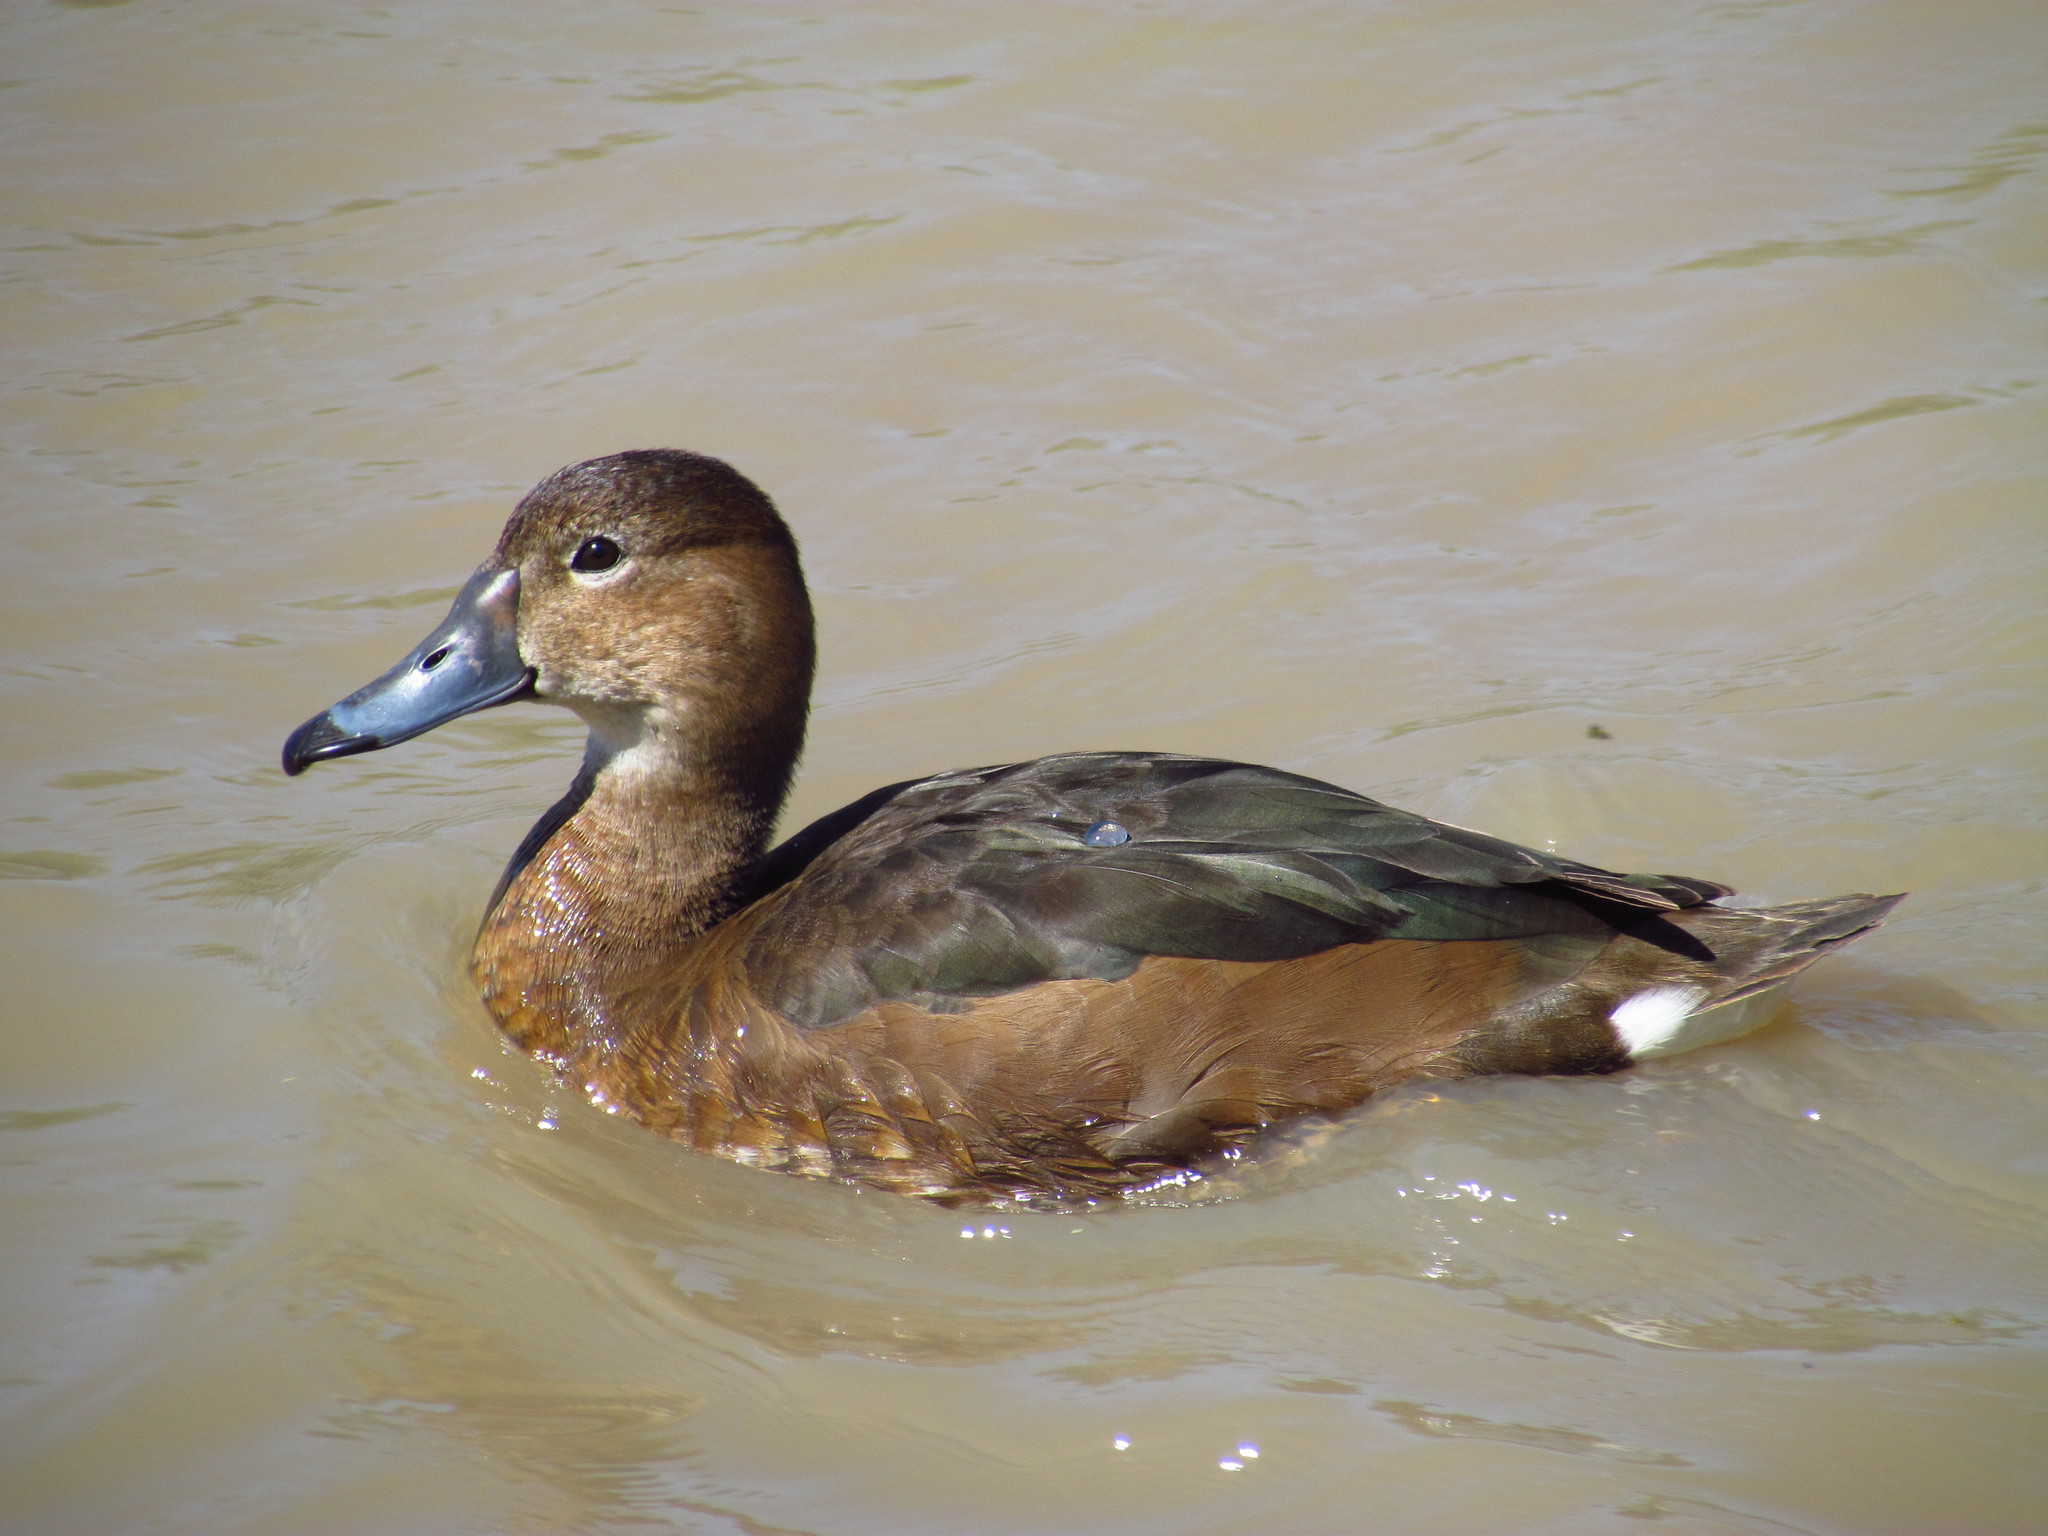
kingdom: Animalia
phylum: Chordata
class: Aves
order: Anseriformes
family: Anatidae
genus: Netta
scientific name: Netta peposaca
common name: Rosy-billed pochard
